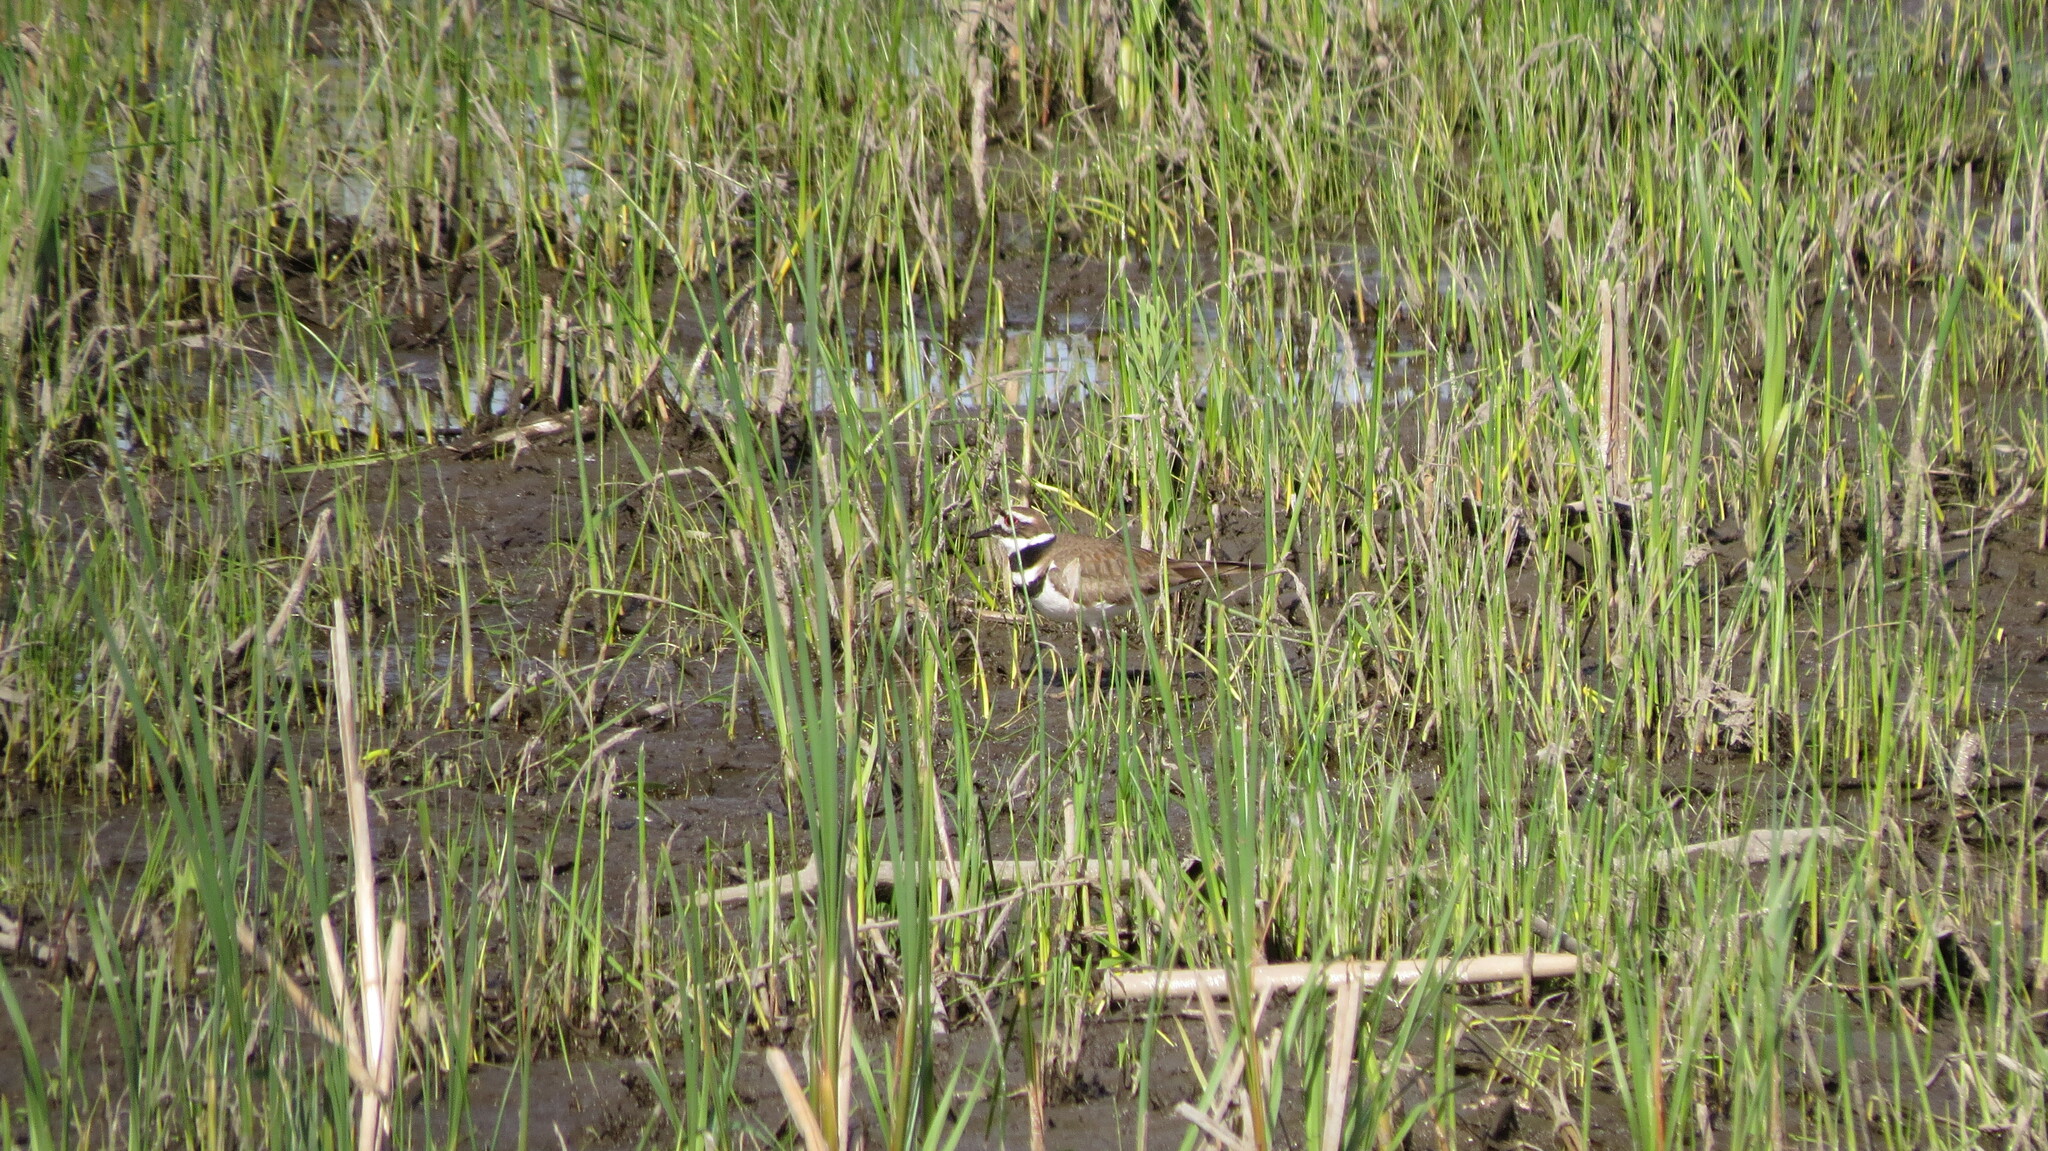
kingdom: Animalia
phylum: Chordata
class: Aves
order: Charadriiformes
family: Charadriidae
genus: Charadrius
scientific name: Charadrius vociferus
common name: Killdeer
